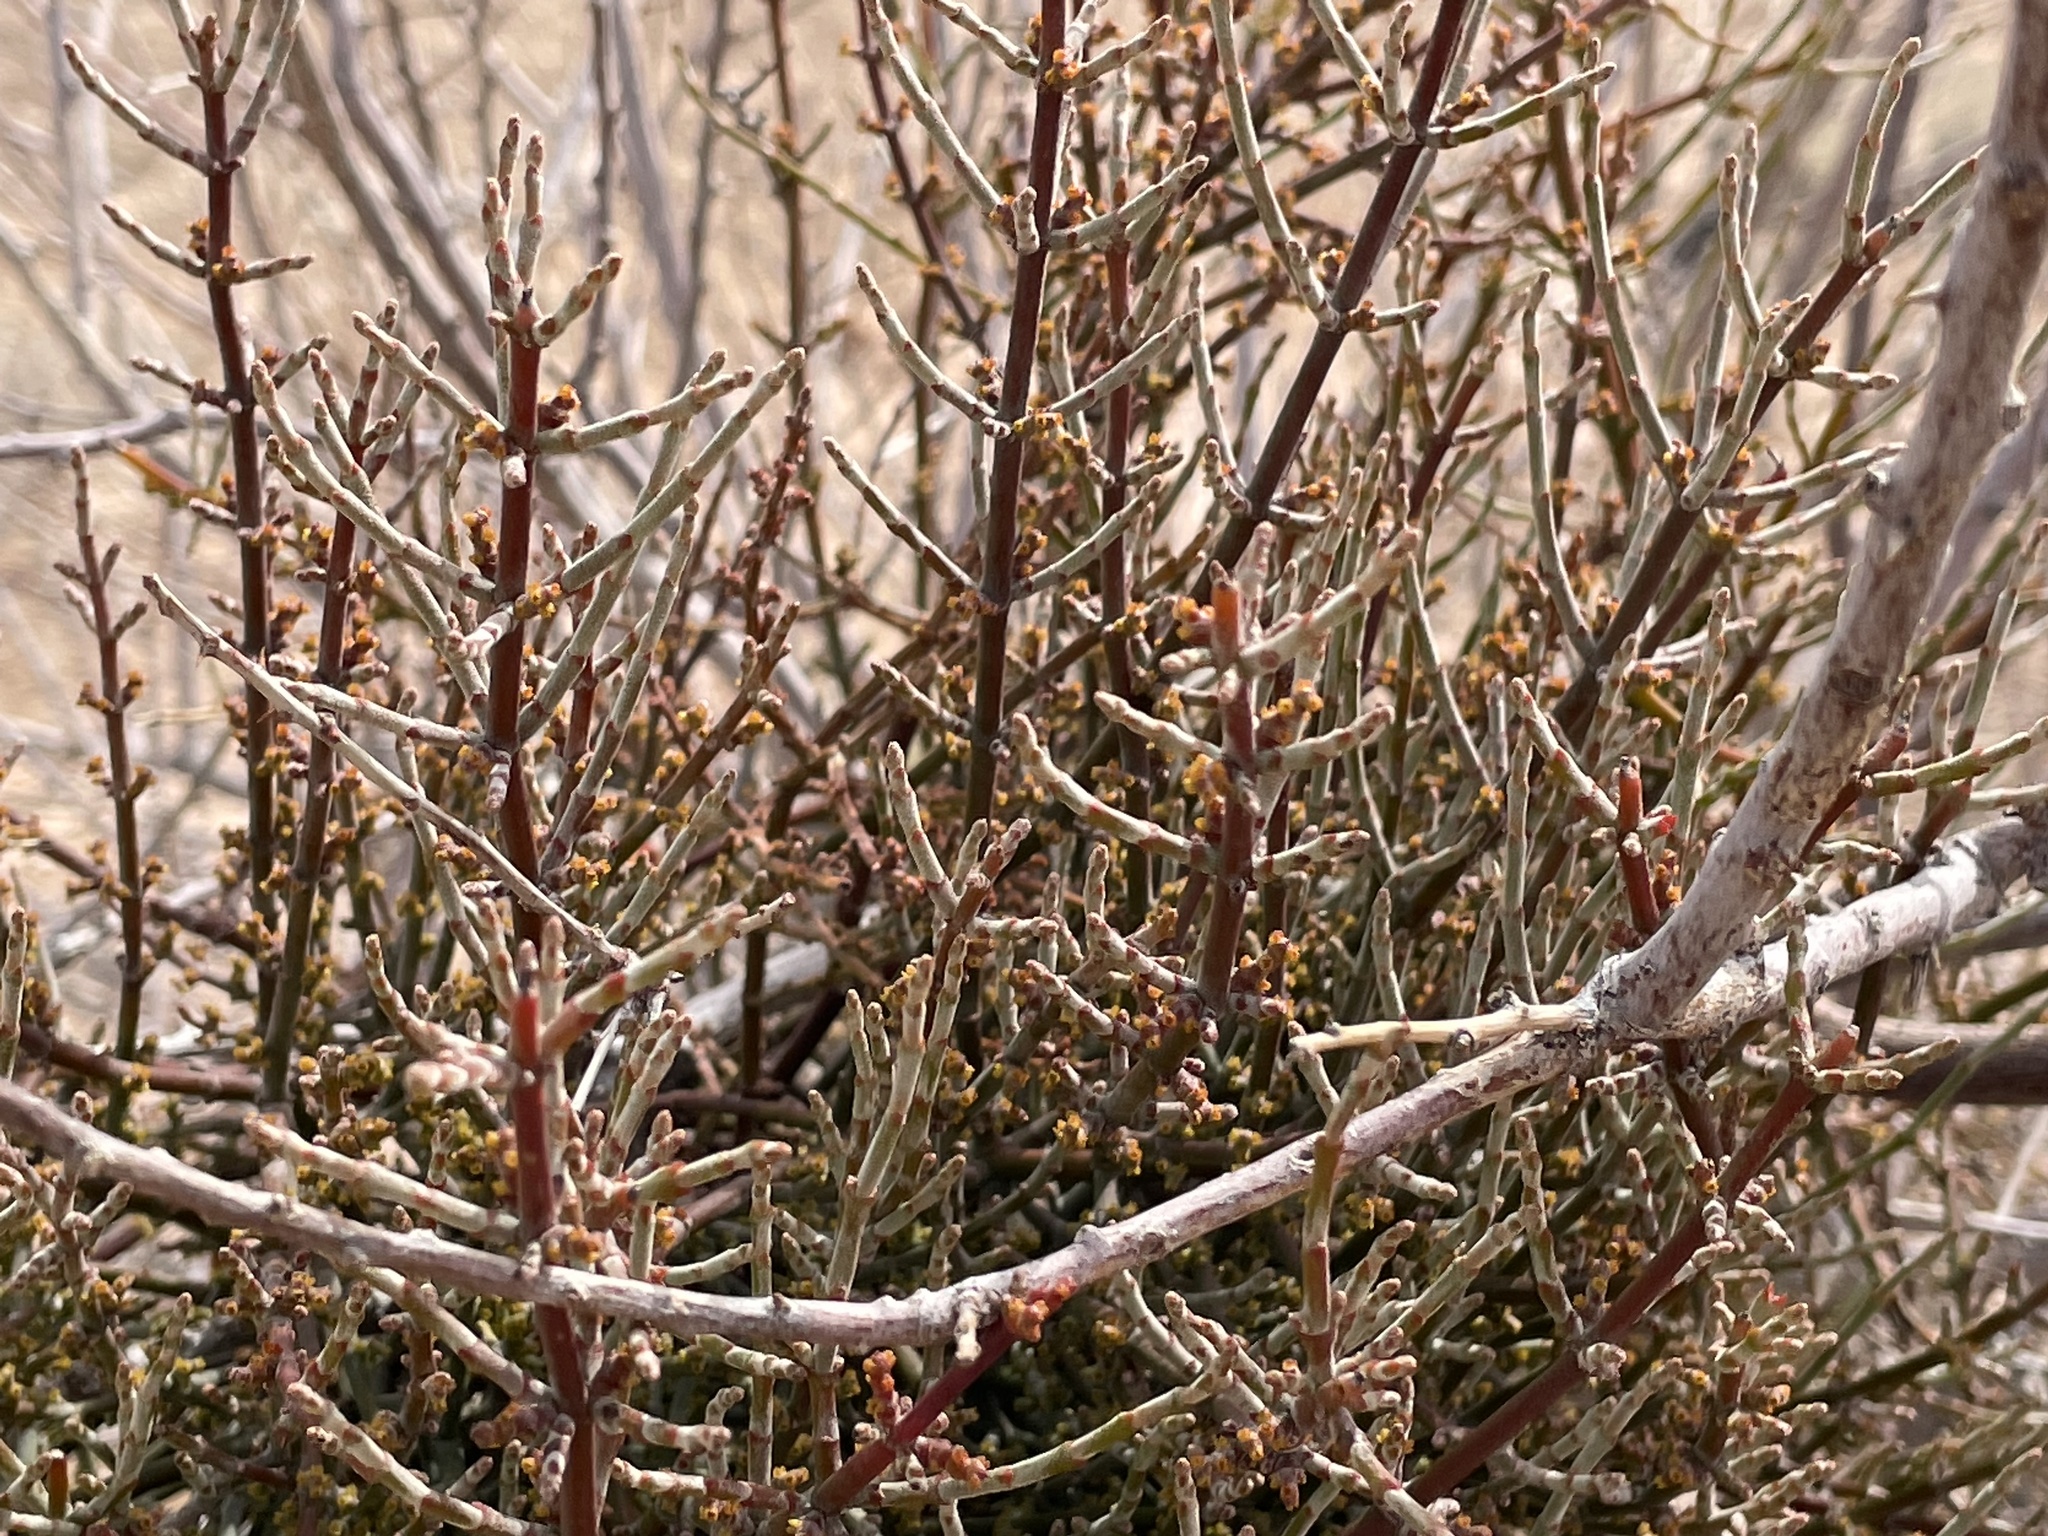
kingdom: Plantae
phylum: Tracheophyta
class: Magnoliopsida
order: Santalales
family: Viscaceae
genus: Phoradendron
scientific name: Phoradendron californicum
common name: Acacia mistletoe
